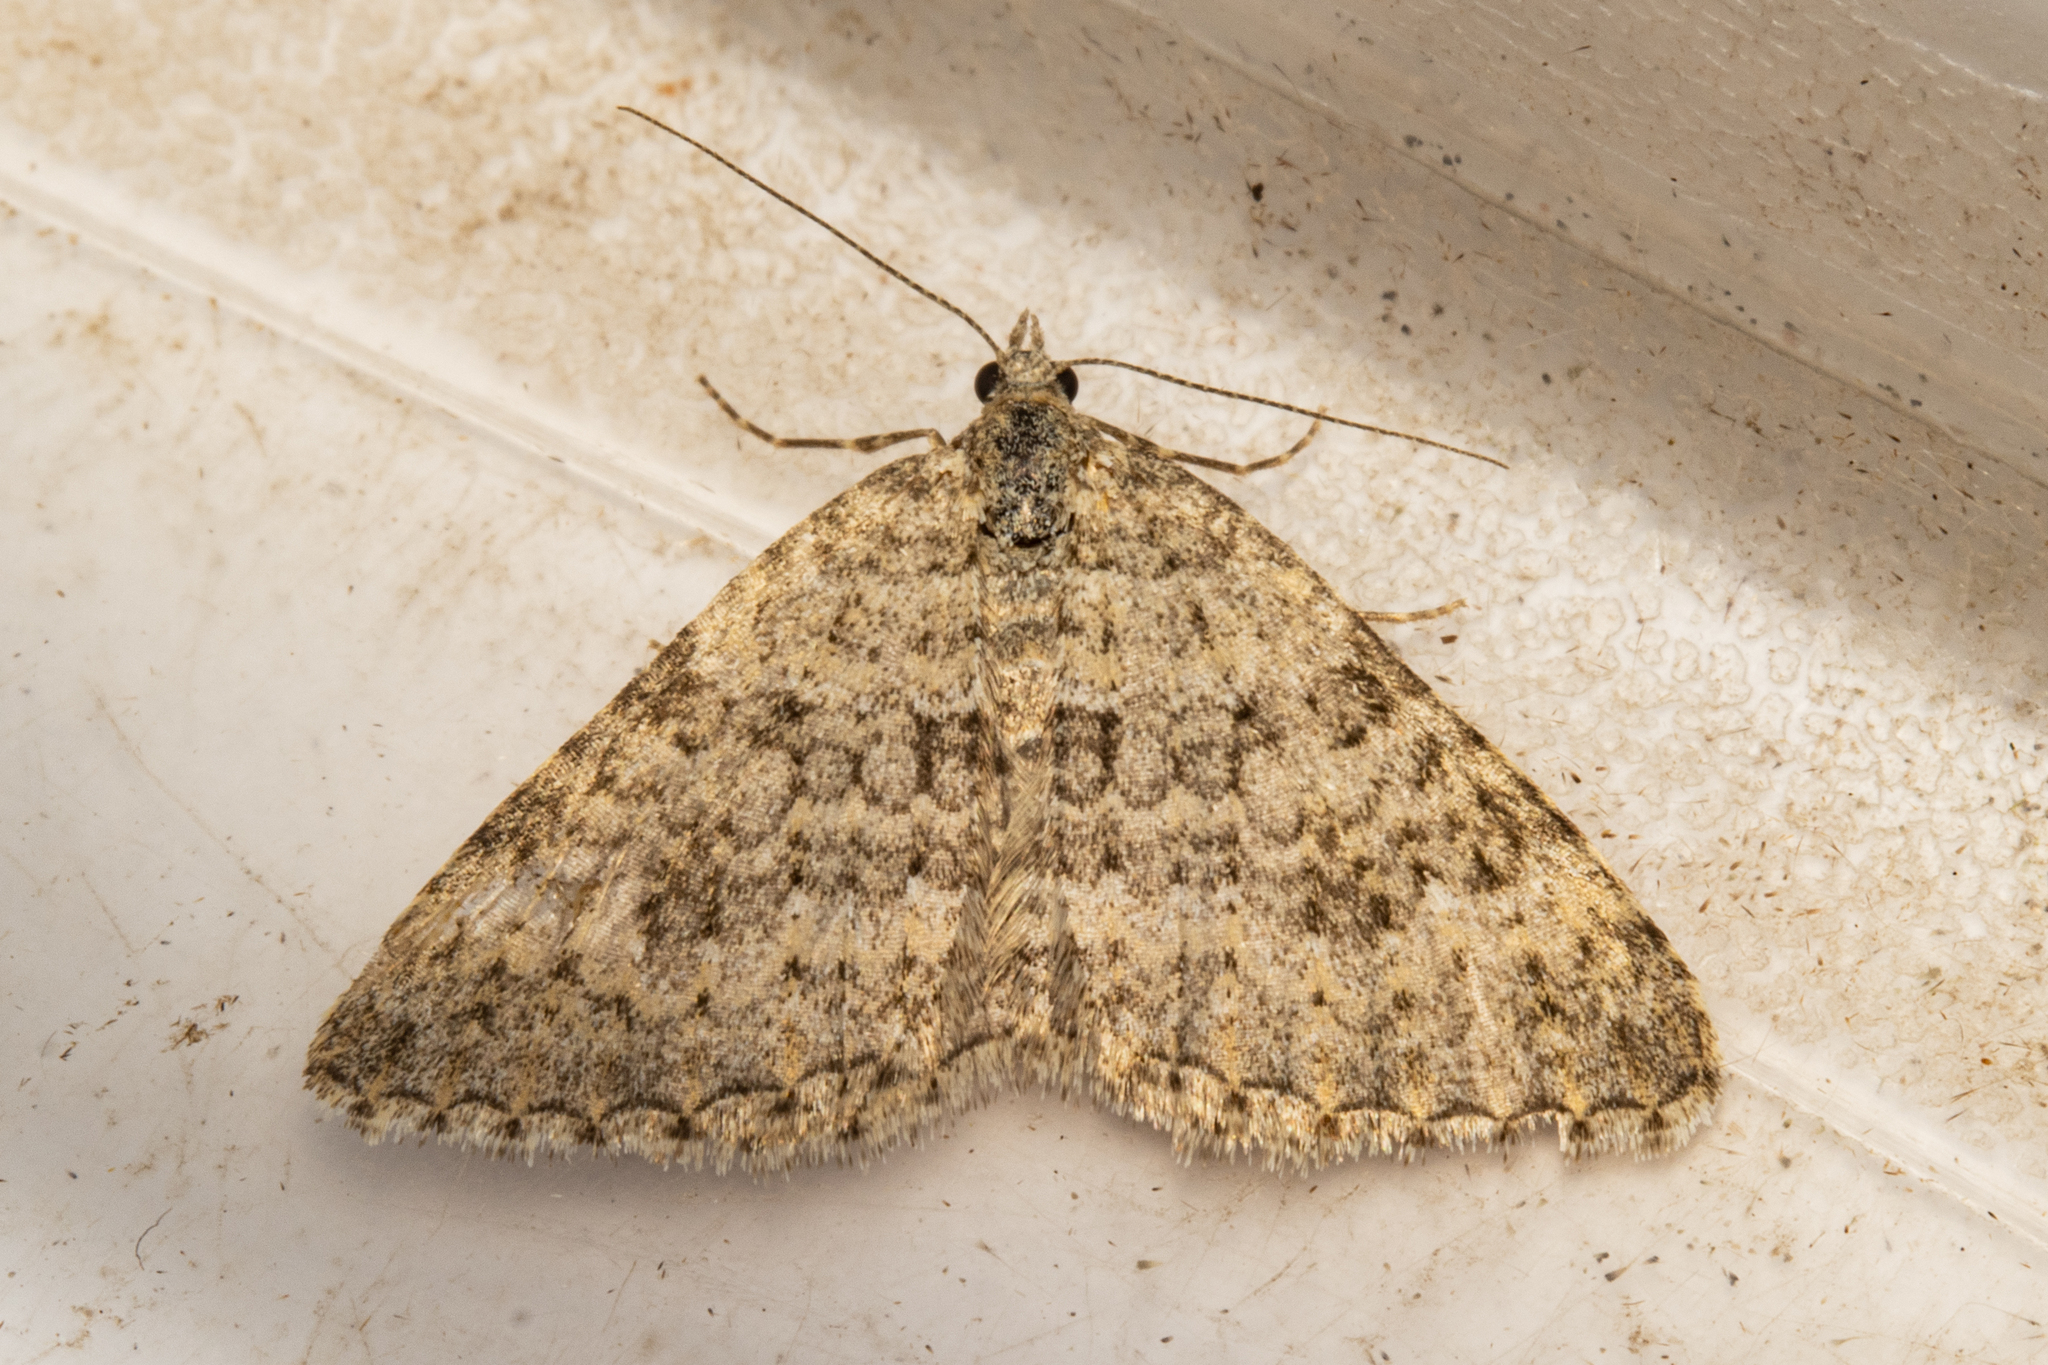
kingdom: Animalia
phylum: Arthropoda
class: Insecta
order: Lepidoptera
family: Geometridae
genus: Helastia
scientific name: Helastia corcularia
